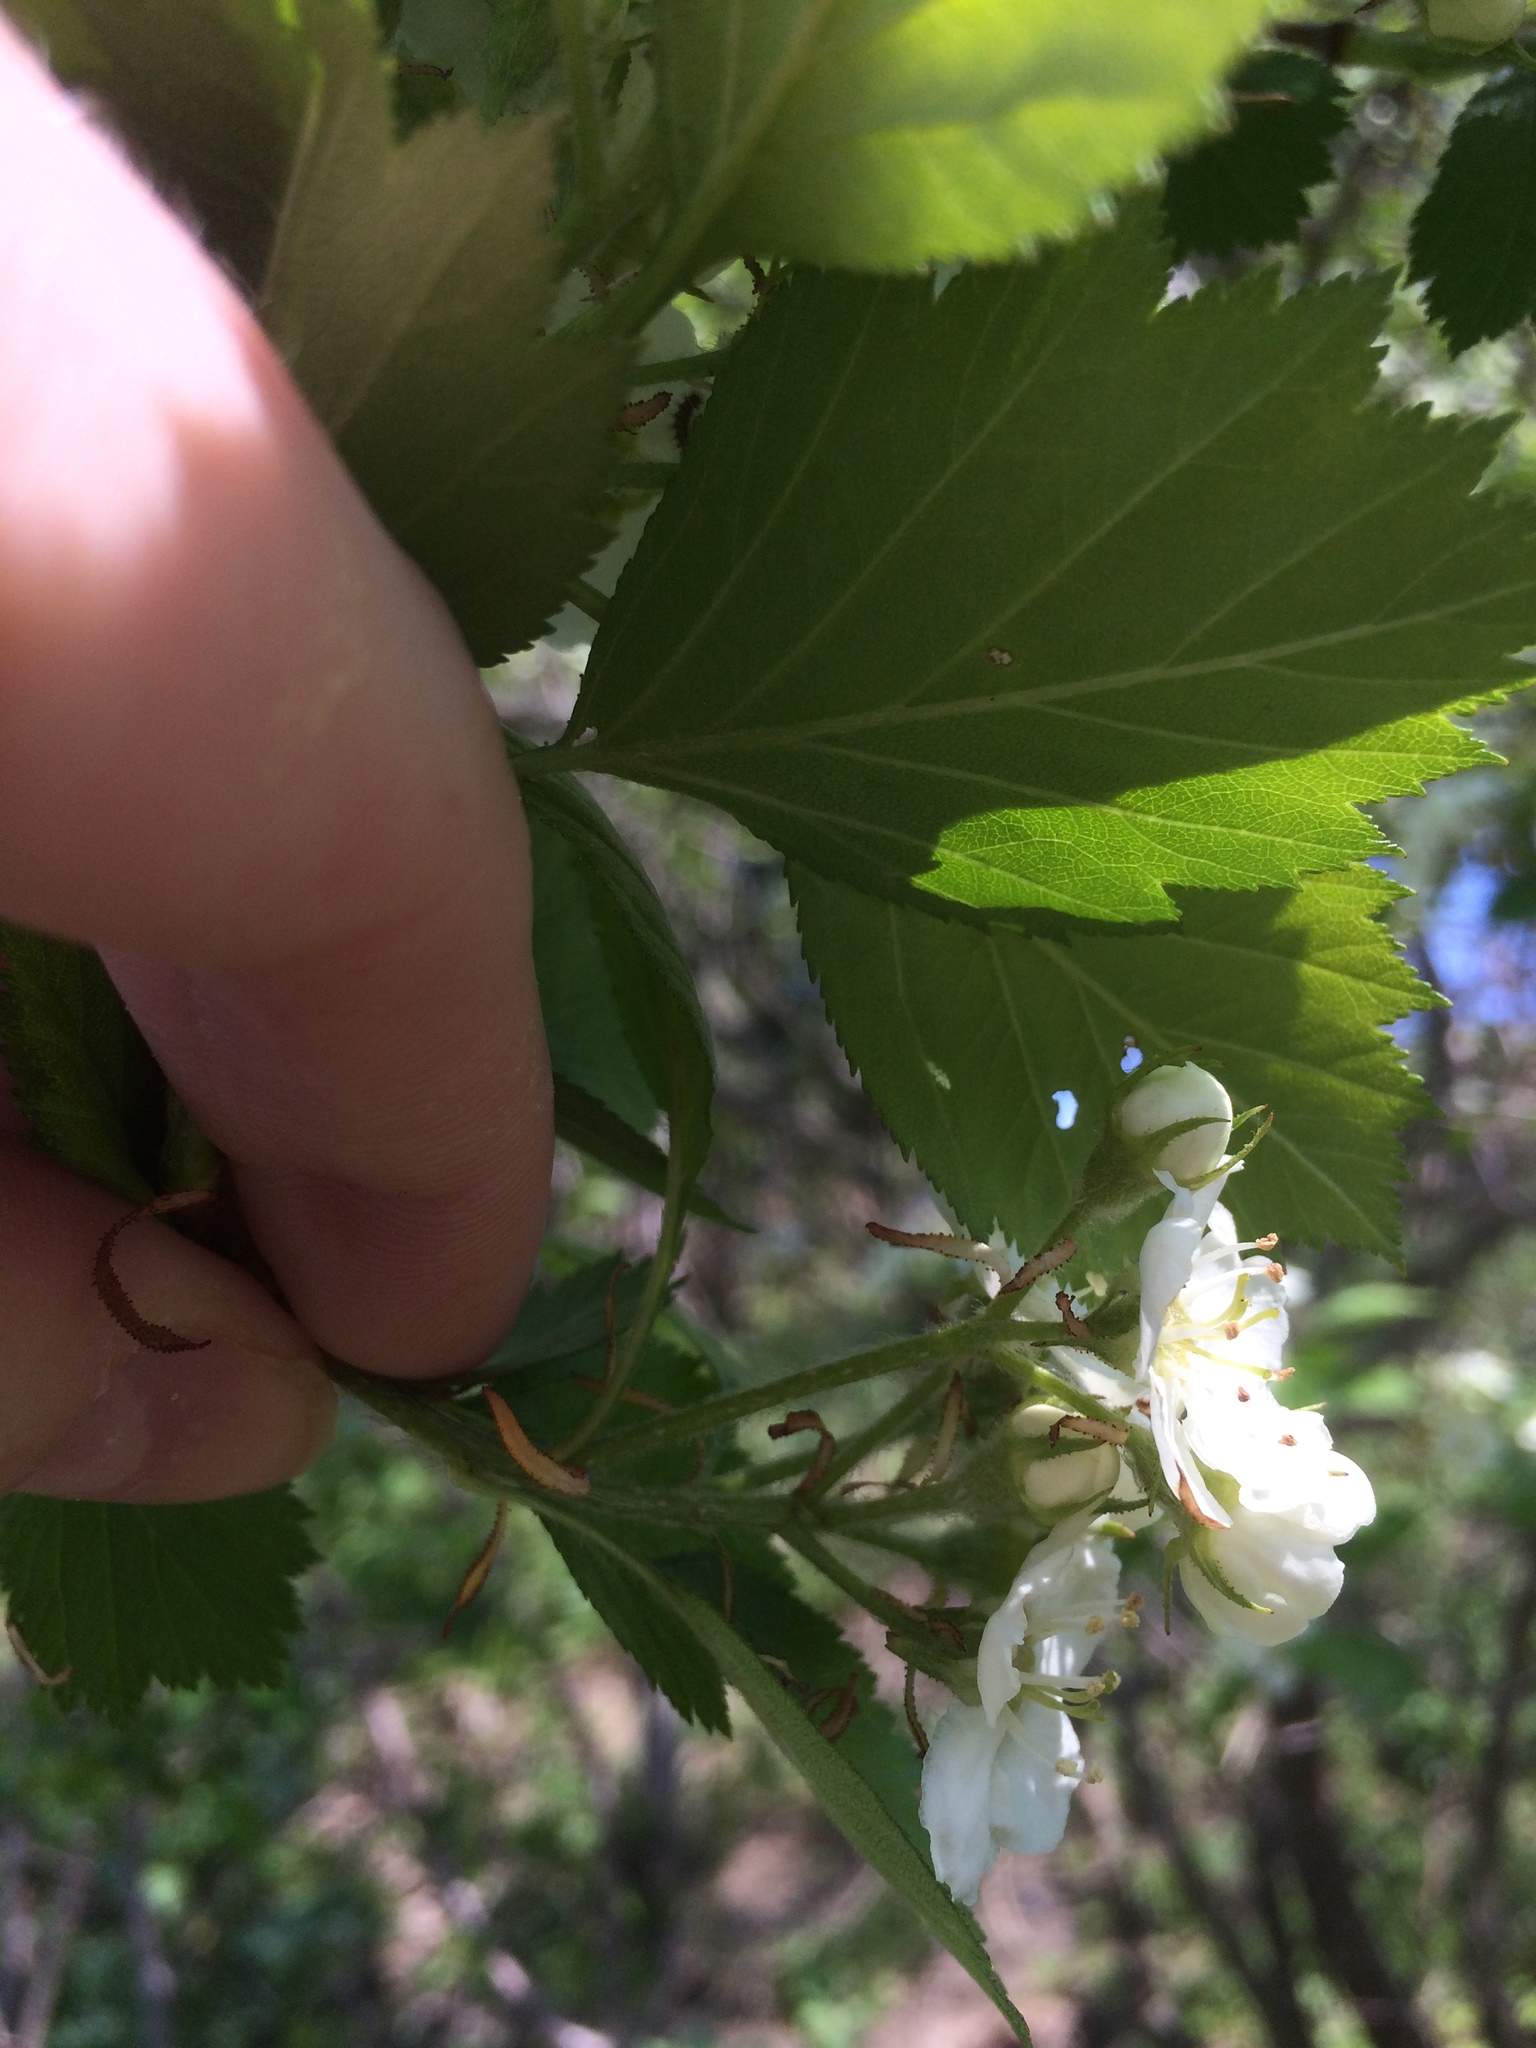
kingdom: Plantae
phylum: Tracheophyta
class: Magnoliopsida
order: Rosales
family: Rosaceae
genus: Crataegus
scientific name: Crataegus chrysocarpa
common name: Fire-berry hawthorn
